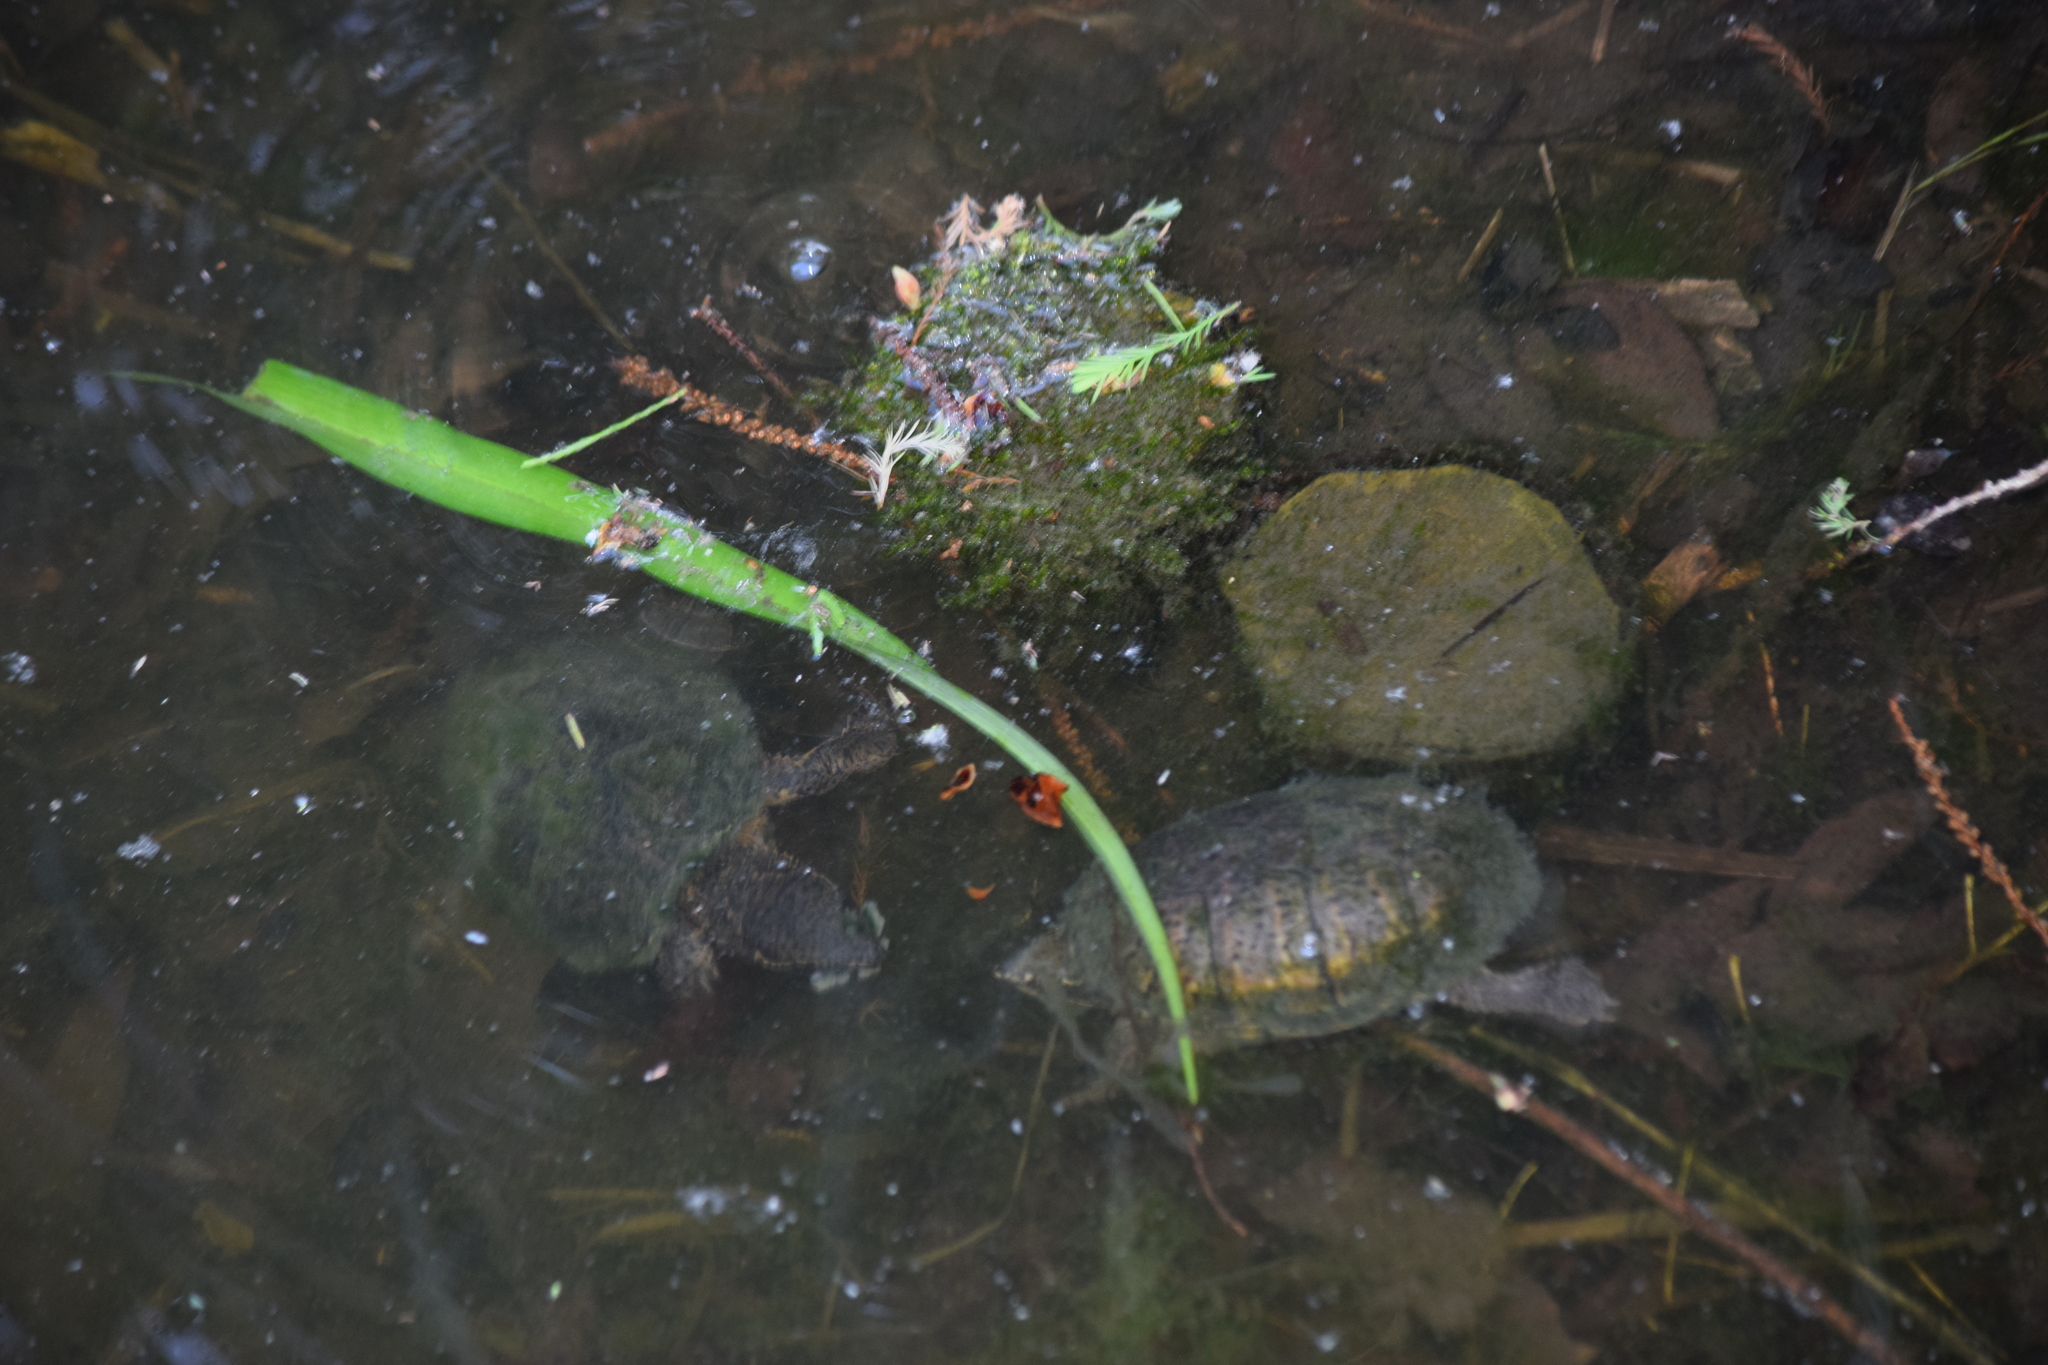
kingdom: Animalia
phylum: Chordata
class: Testudines
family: Kinosternidae
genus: Sternotherus
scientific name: Sternotherus odoratus
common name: Common musk turtle
